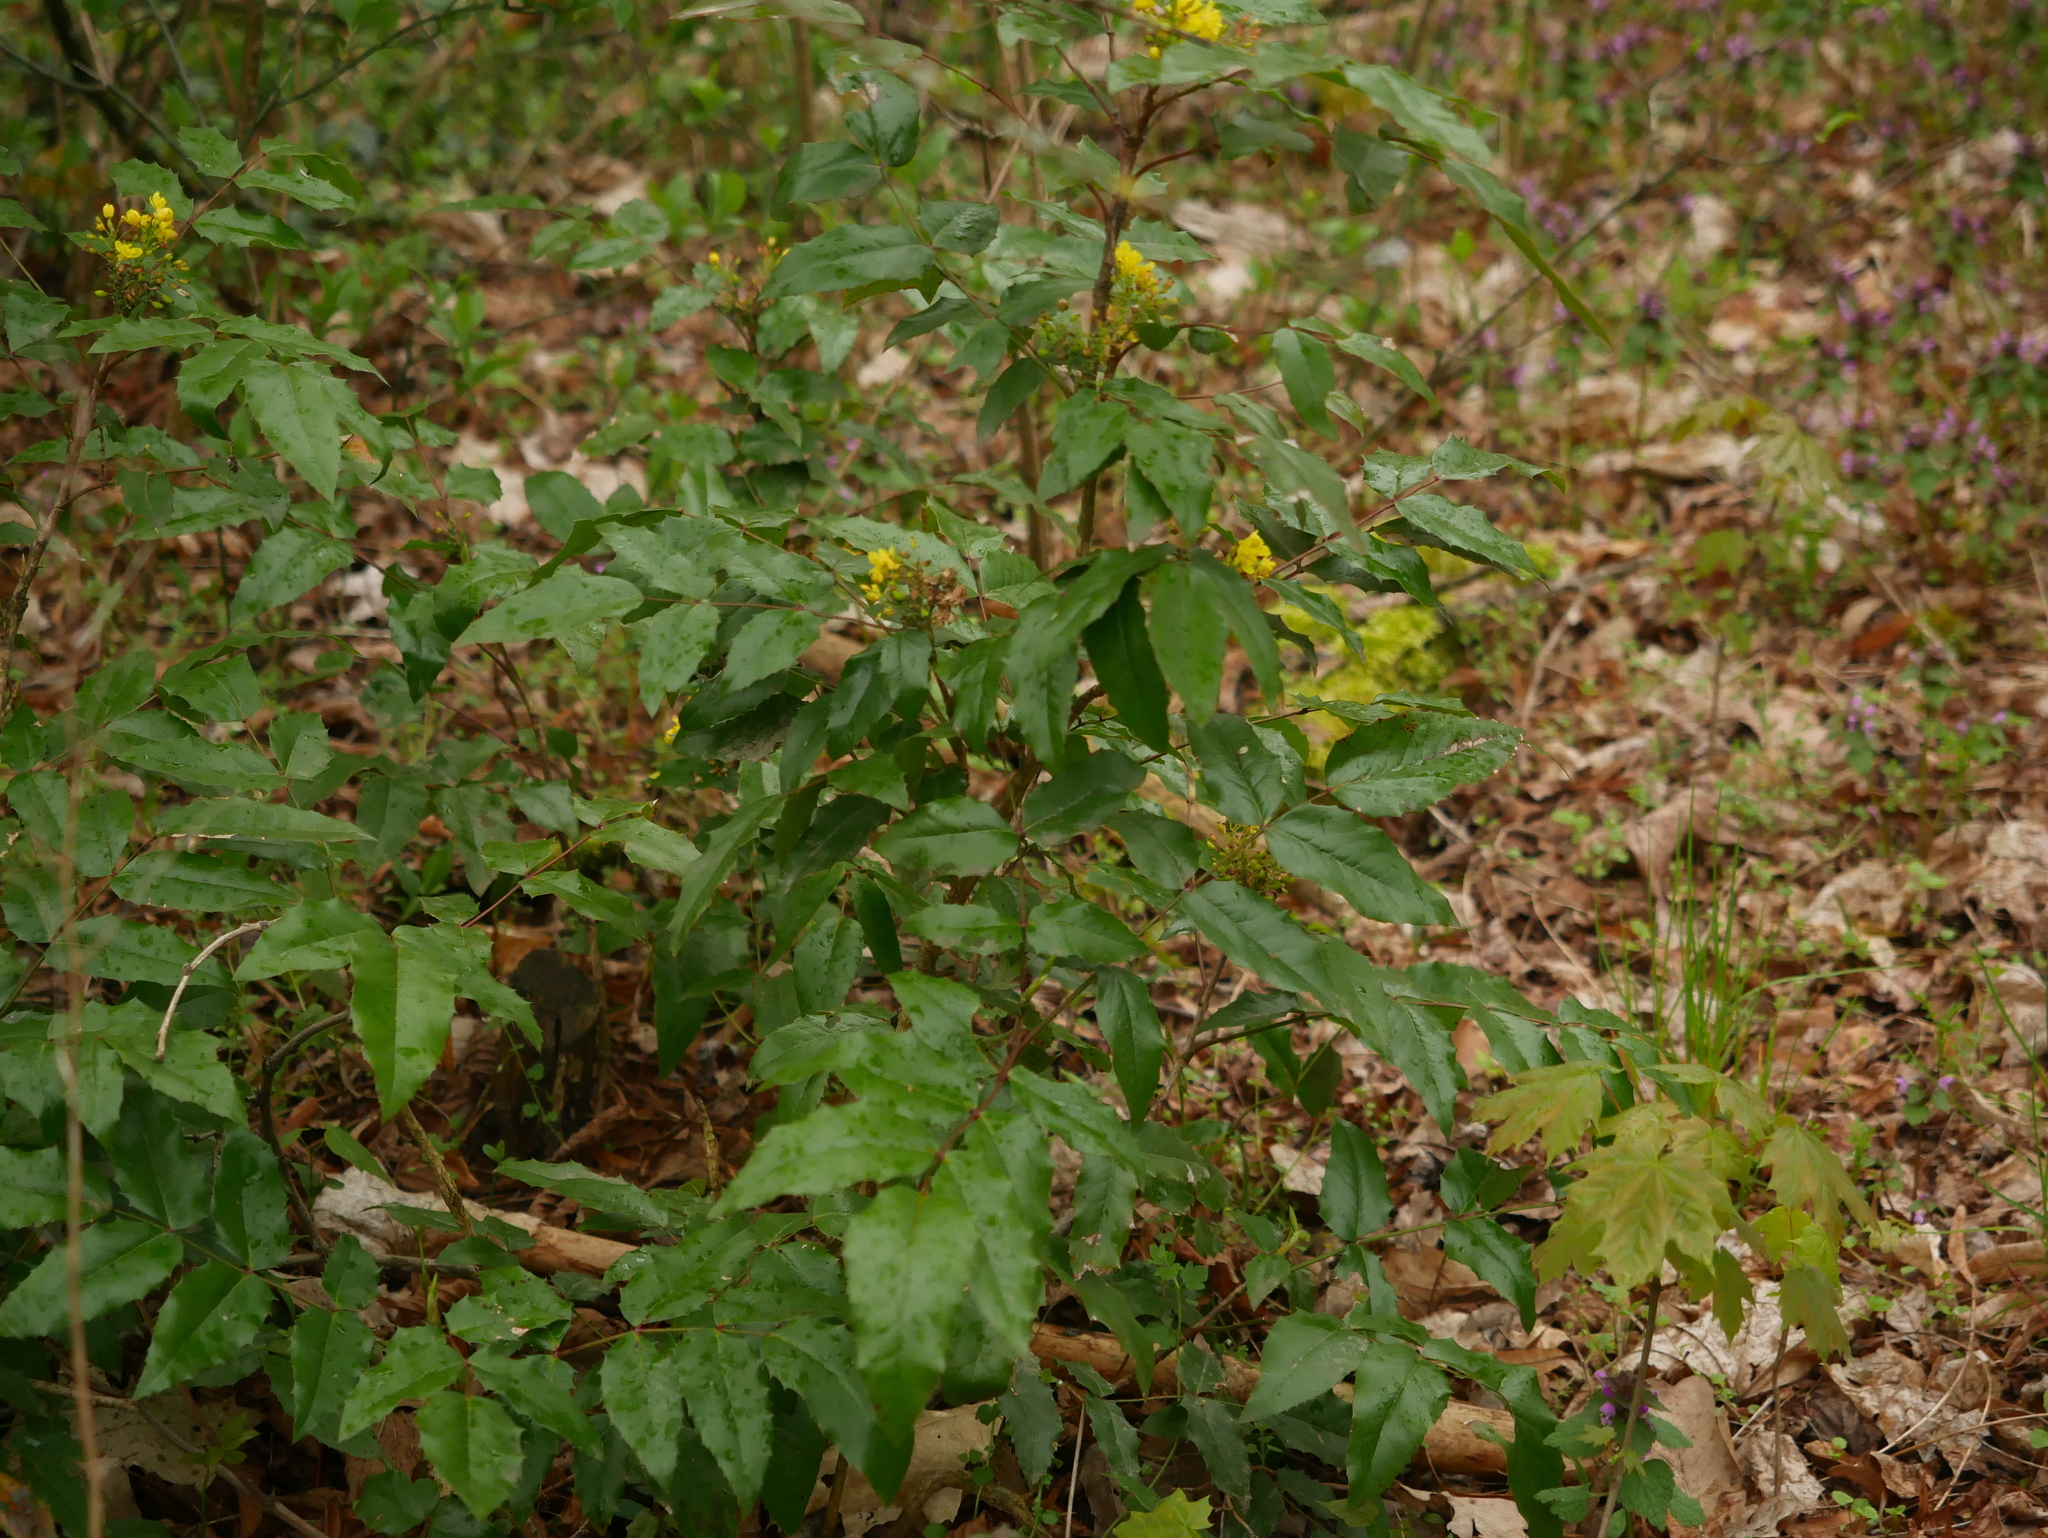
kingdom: Plantae
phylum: Tracheophyta
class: Magnoliopsida
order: Ranunculales
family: Berberidaceae
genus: Mahonia
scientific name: Mahonia aquifolium
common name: Oregon-grape
